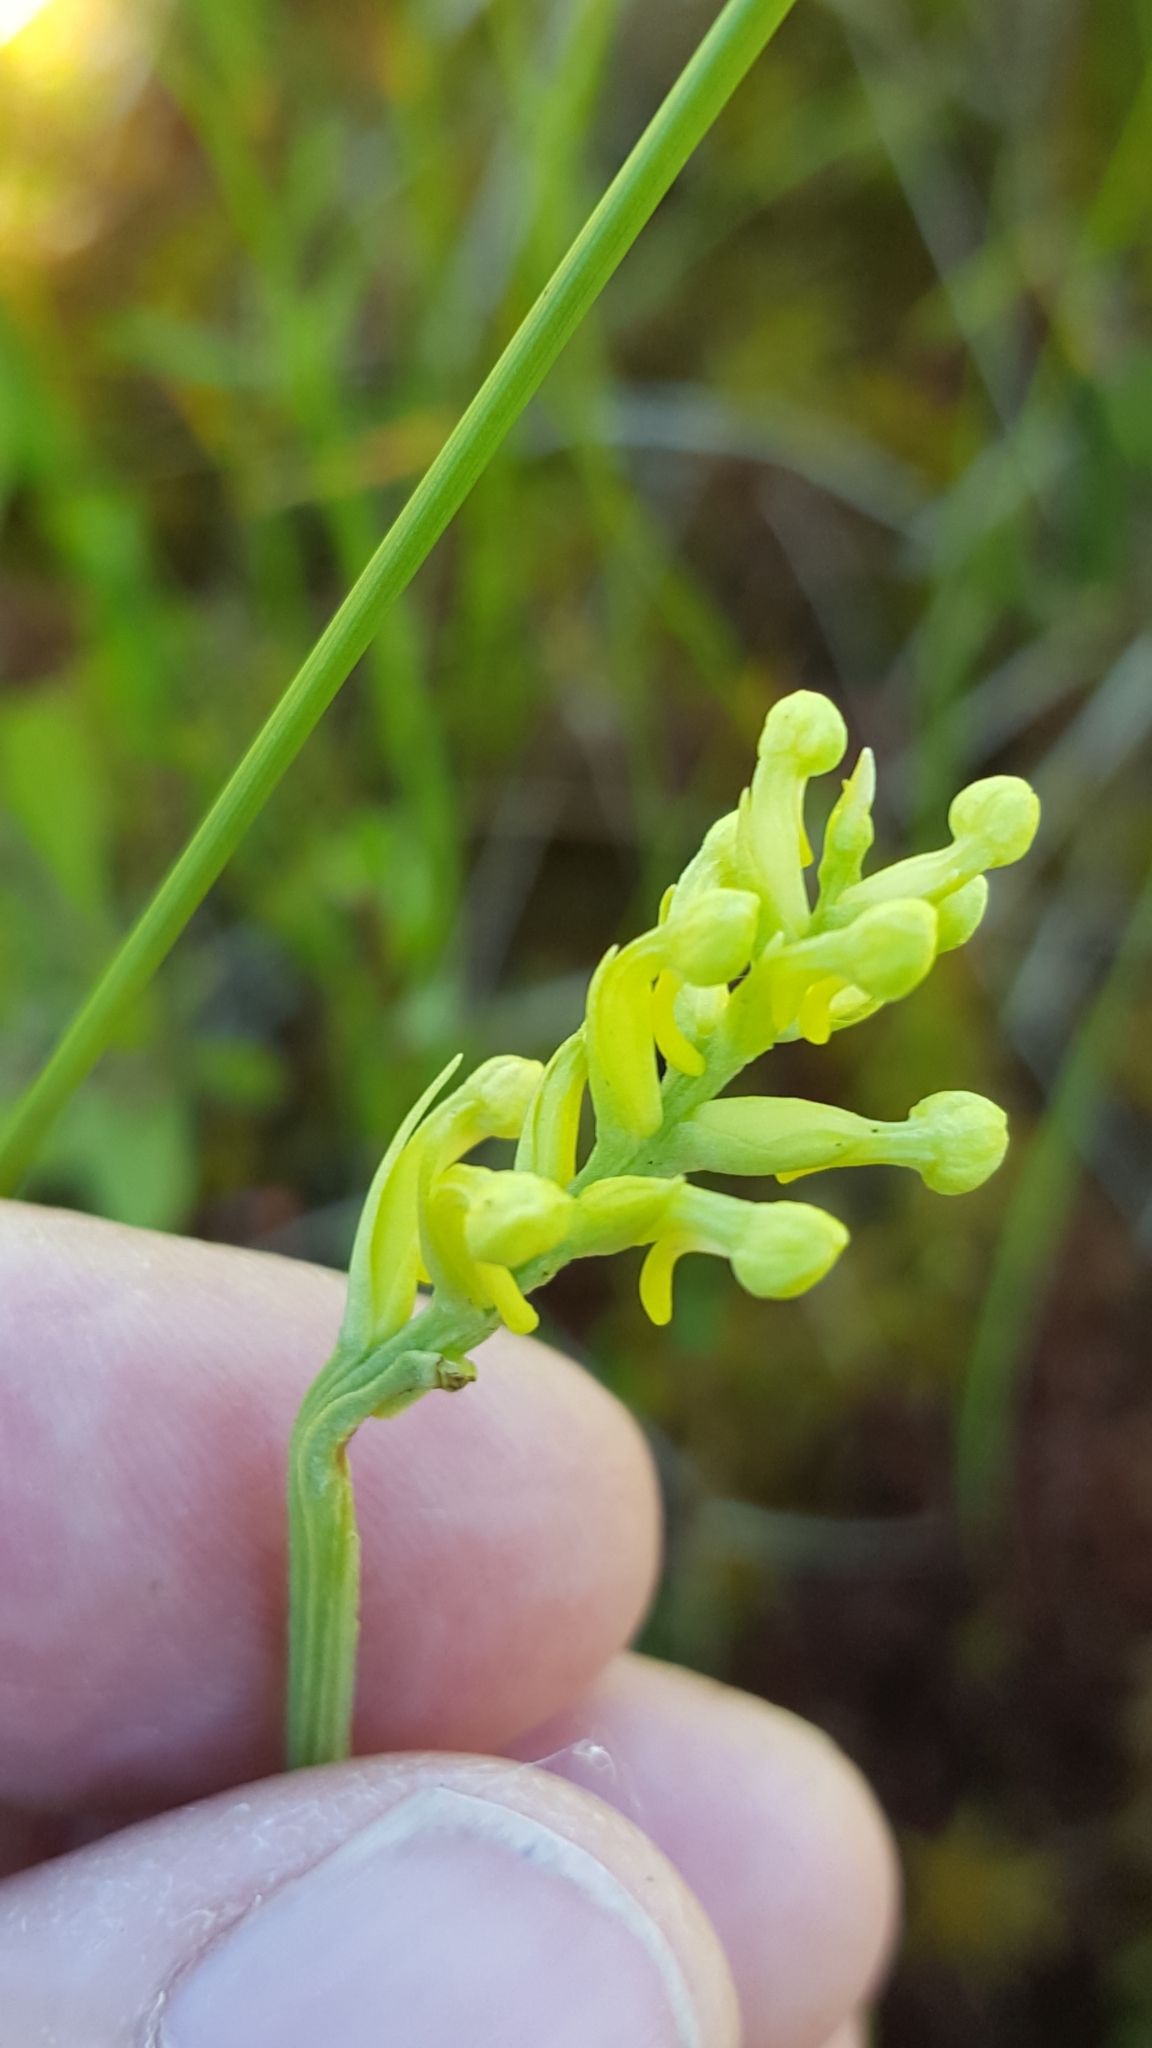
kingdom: Plantae
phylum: Tracheophyta
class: Liliopsida
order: Asparagales
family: Orchidaceae
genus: Platanthera
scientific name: Platanthera clavellata
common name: Club-spur orchid
